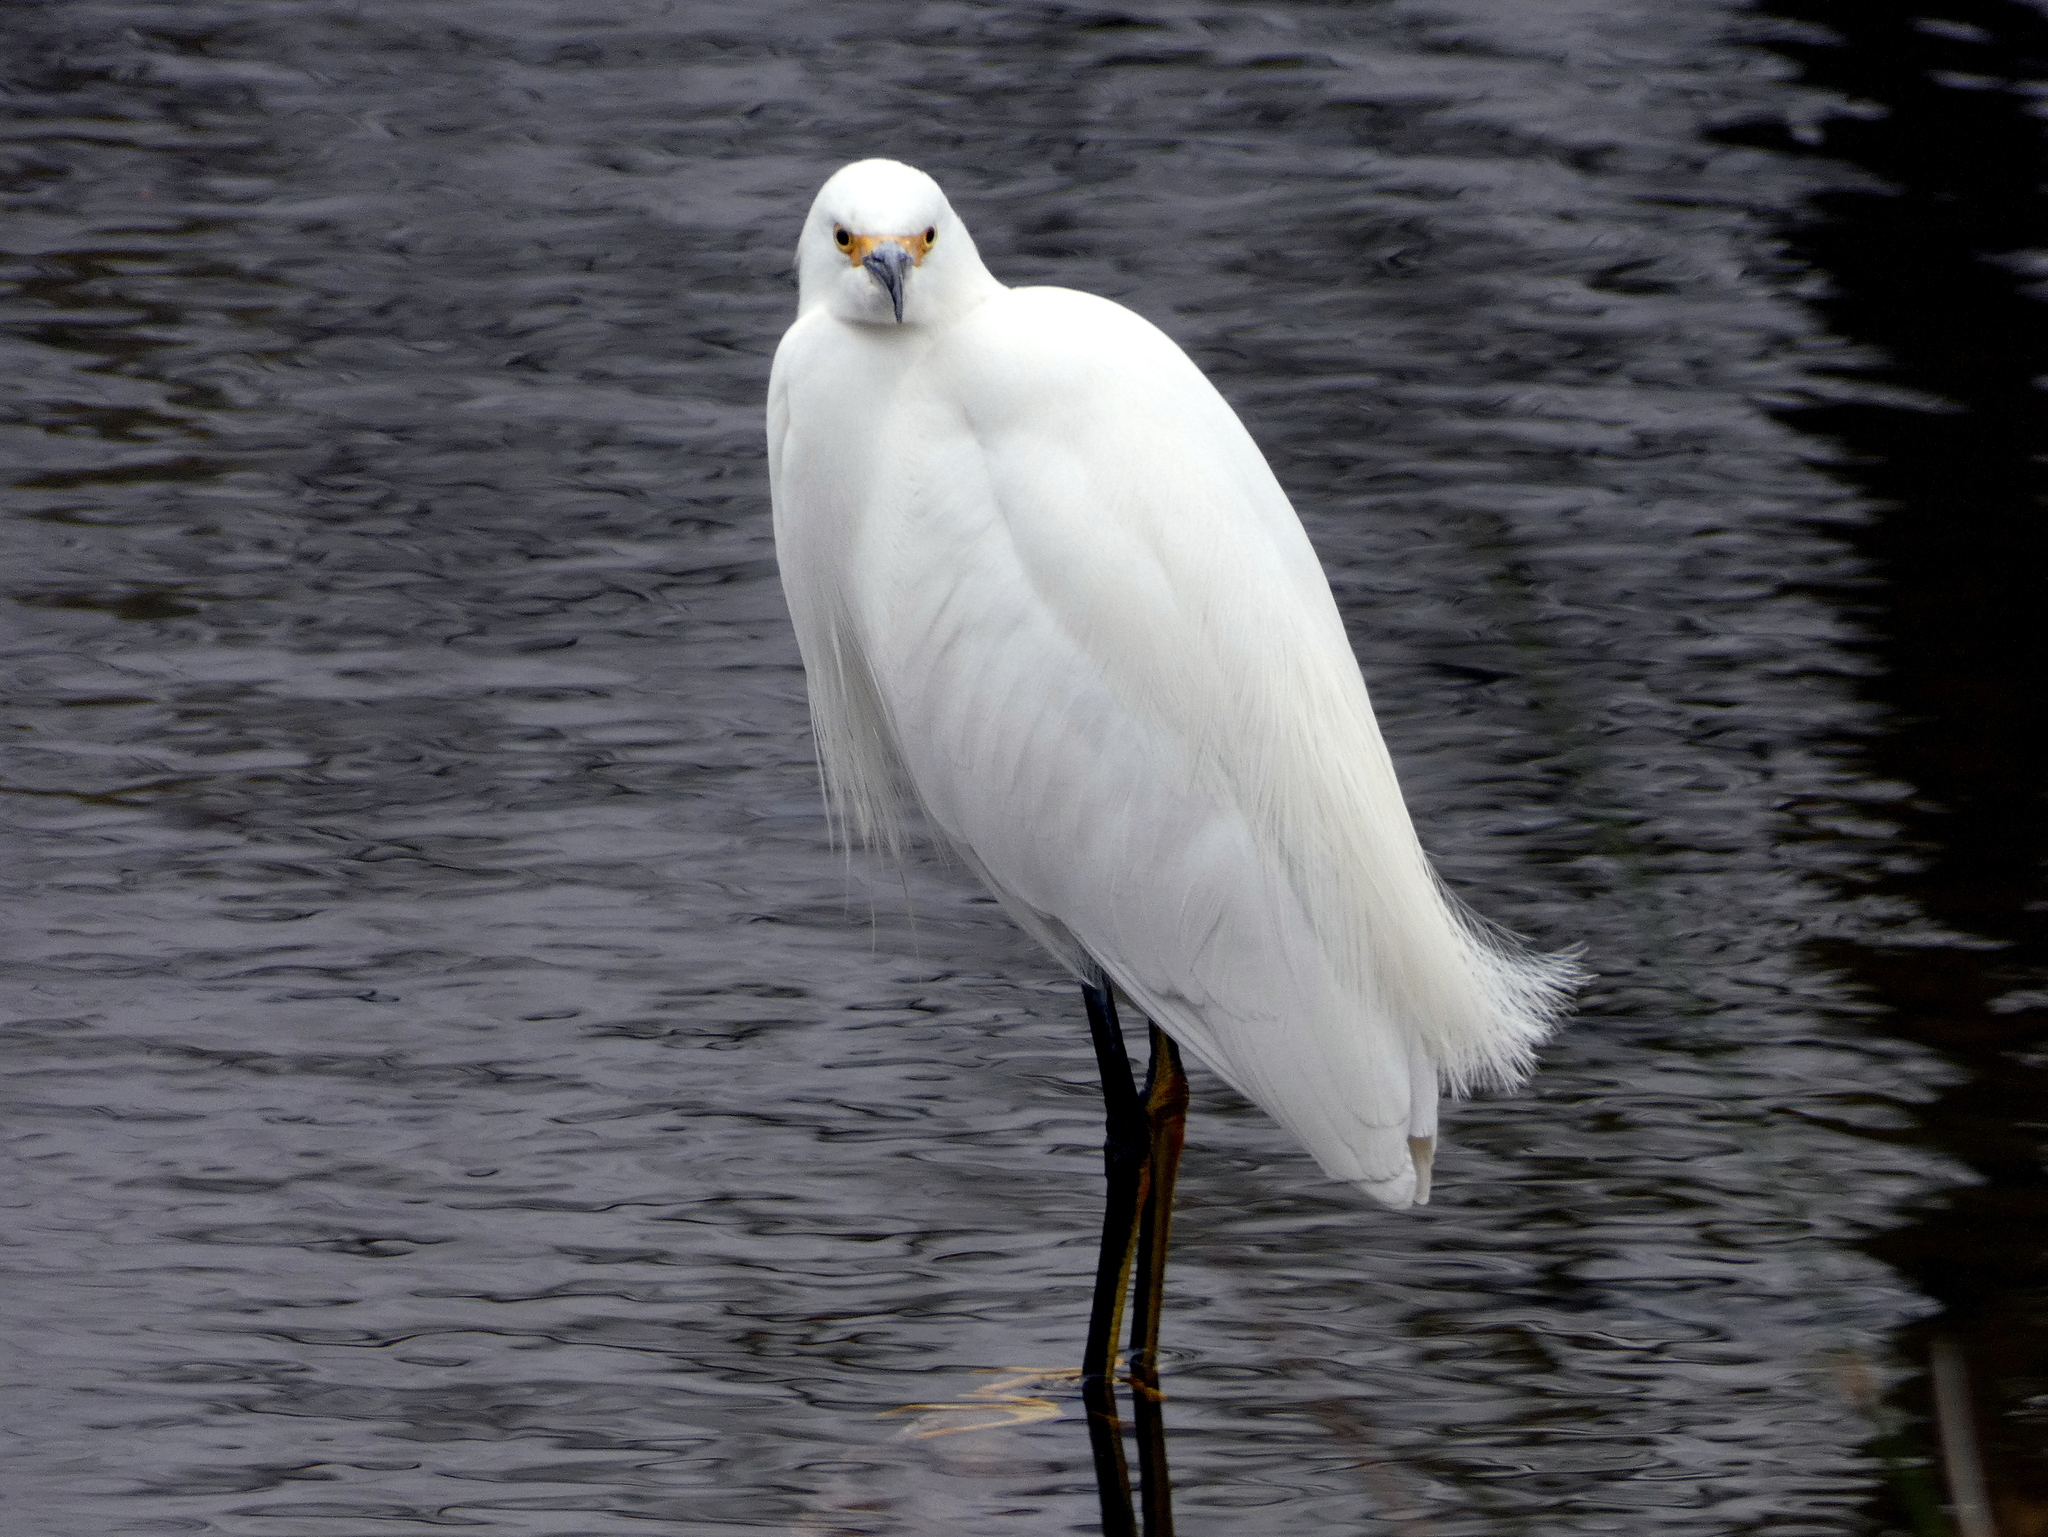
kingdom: Animalia
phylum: Chordata
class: Aves
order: Pelecaniformes
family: Ardeidae
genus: Egretta
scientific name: Egretta thula
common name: Snowy egret
